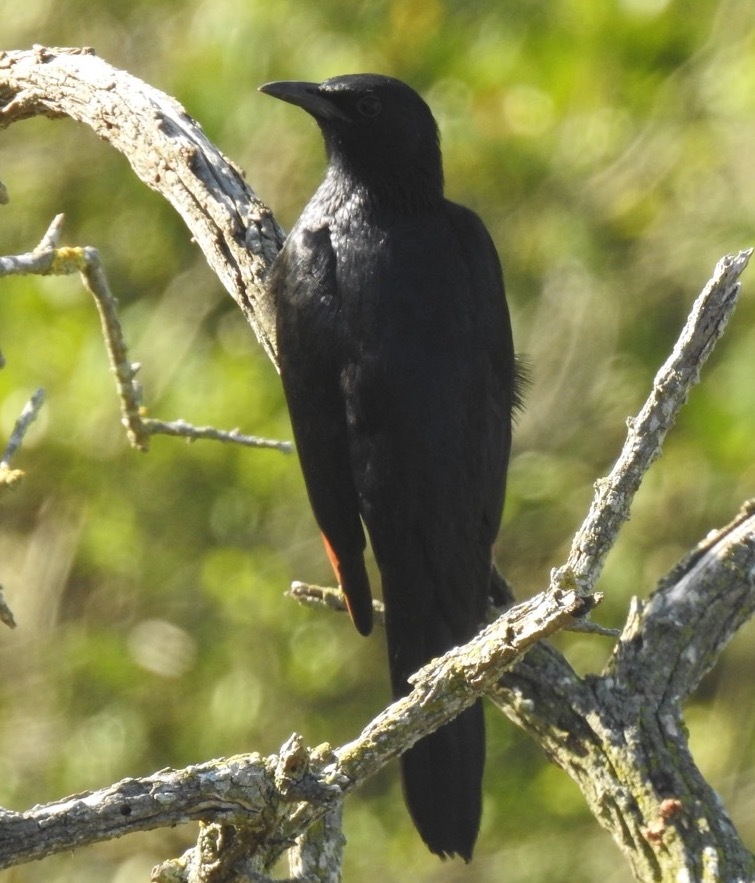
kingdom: Animalia
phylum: Chordata
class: Aves
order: Passeriformes
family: Sturnidae
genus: Onychognathus
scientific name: Onychognathus morio
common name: Red-winged starling
